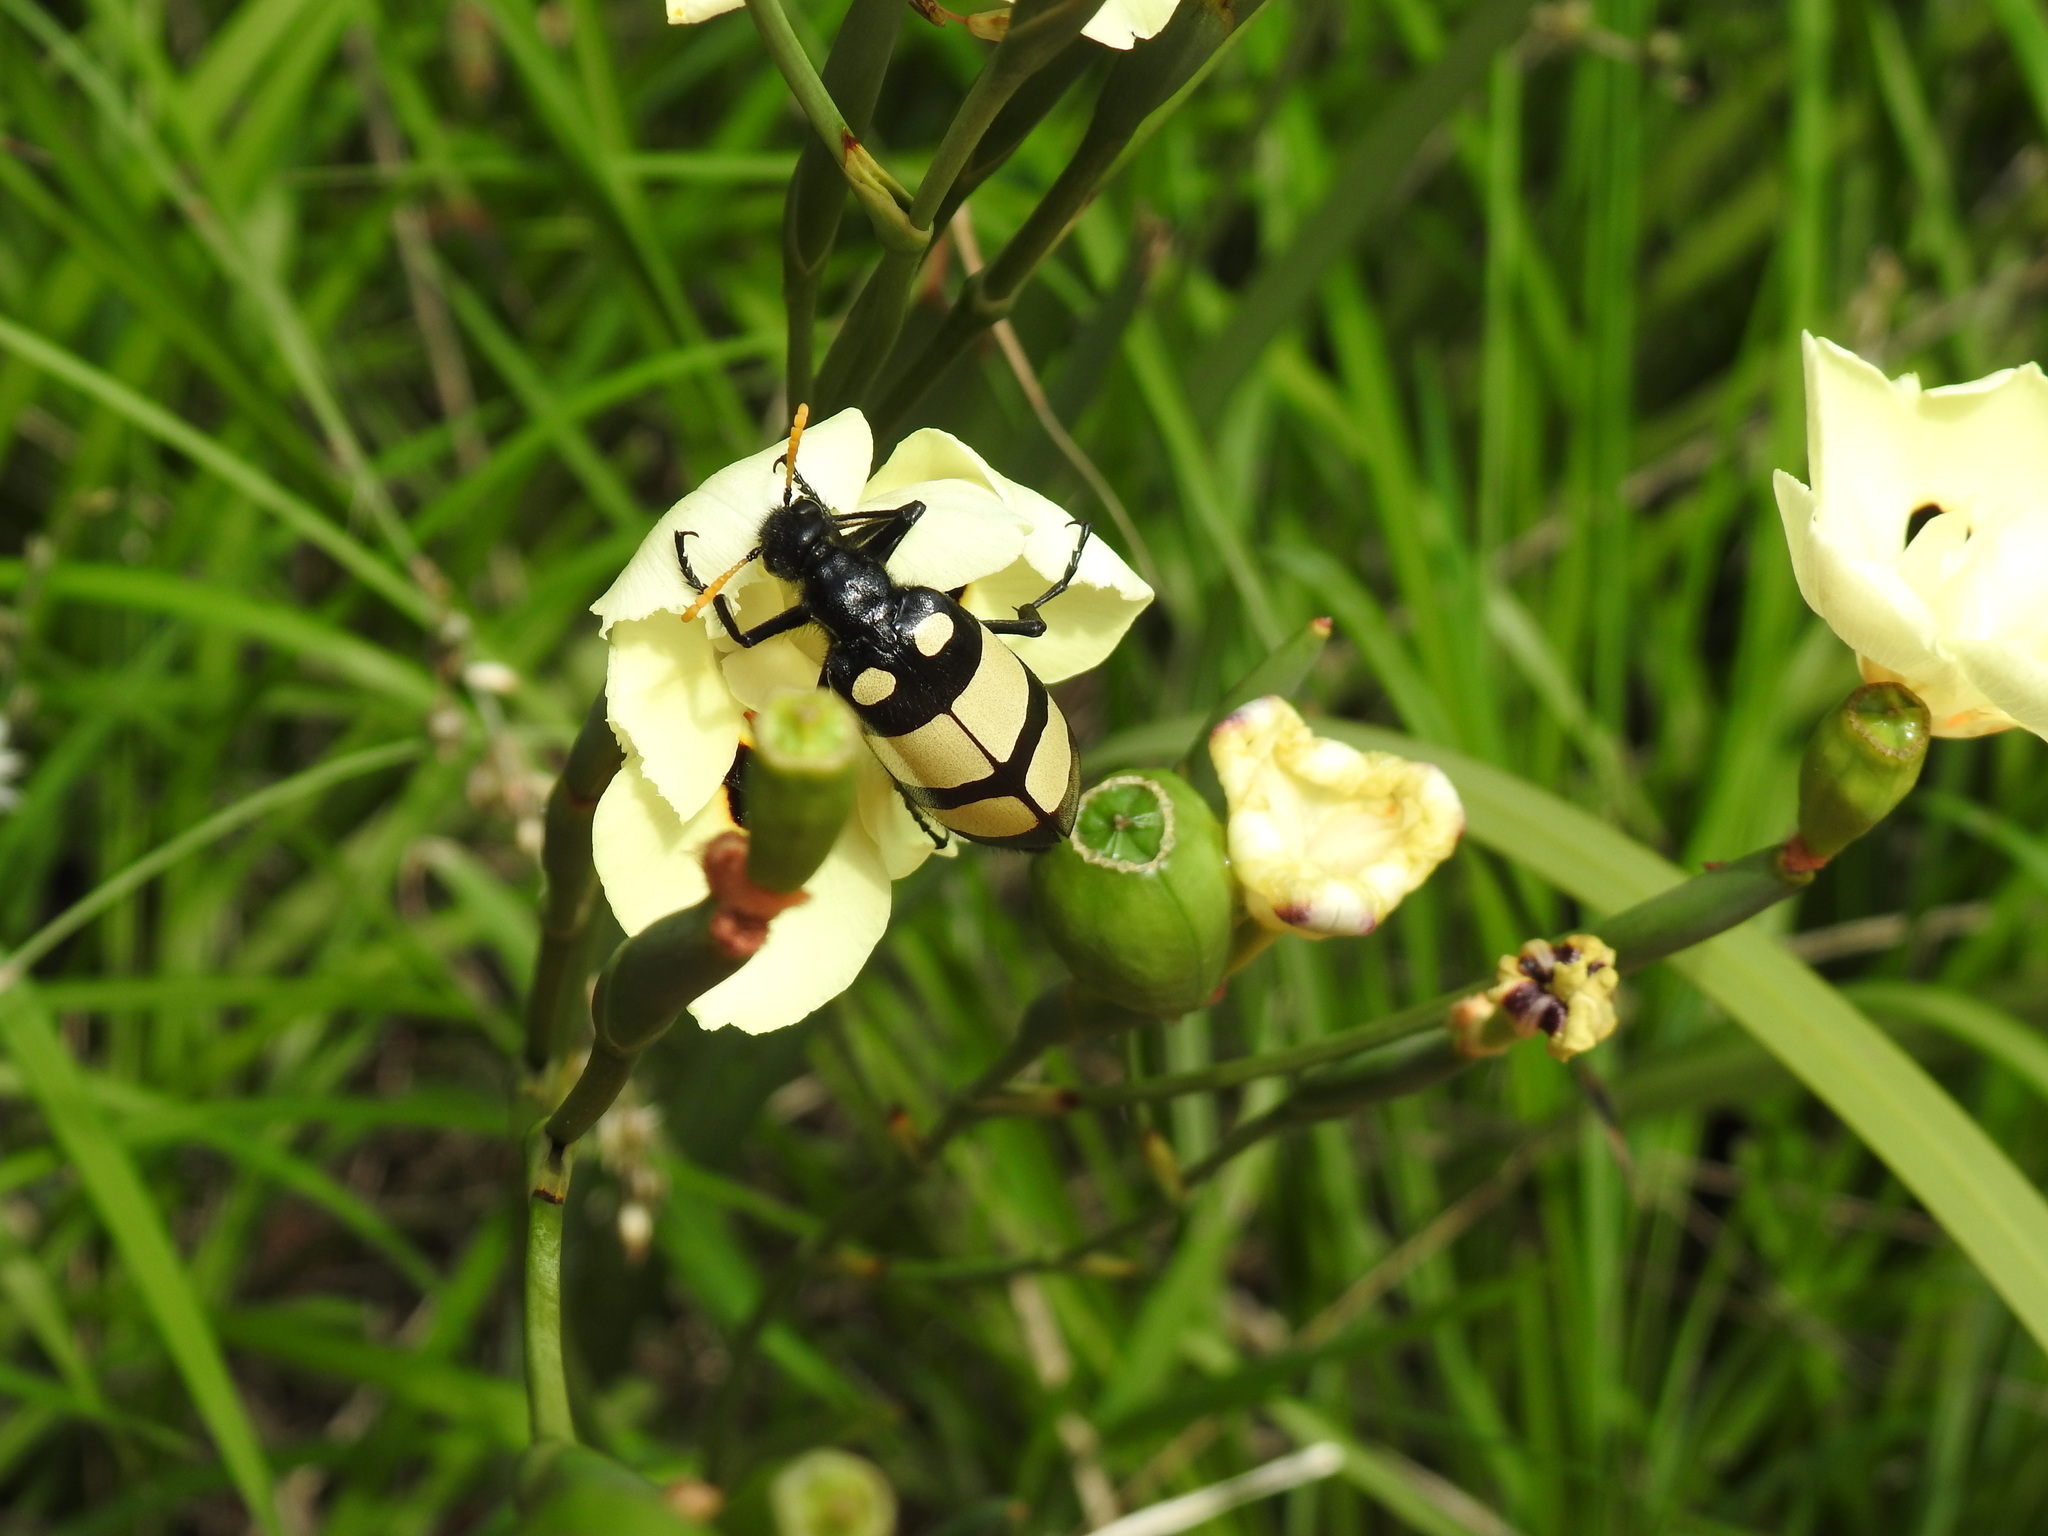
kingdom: Animalia
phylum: Arthropoda
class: Insecta
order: Coleoptera
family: Meloidae
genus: Hycleus
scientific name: Hycleus
